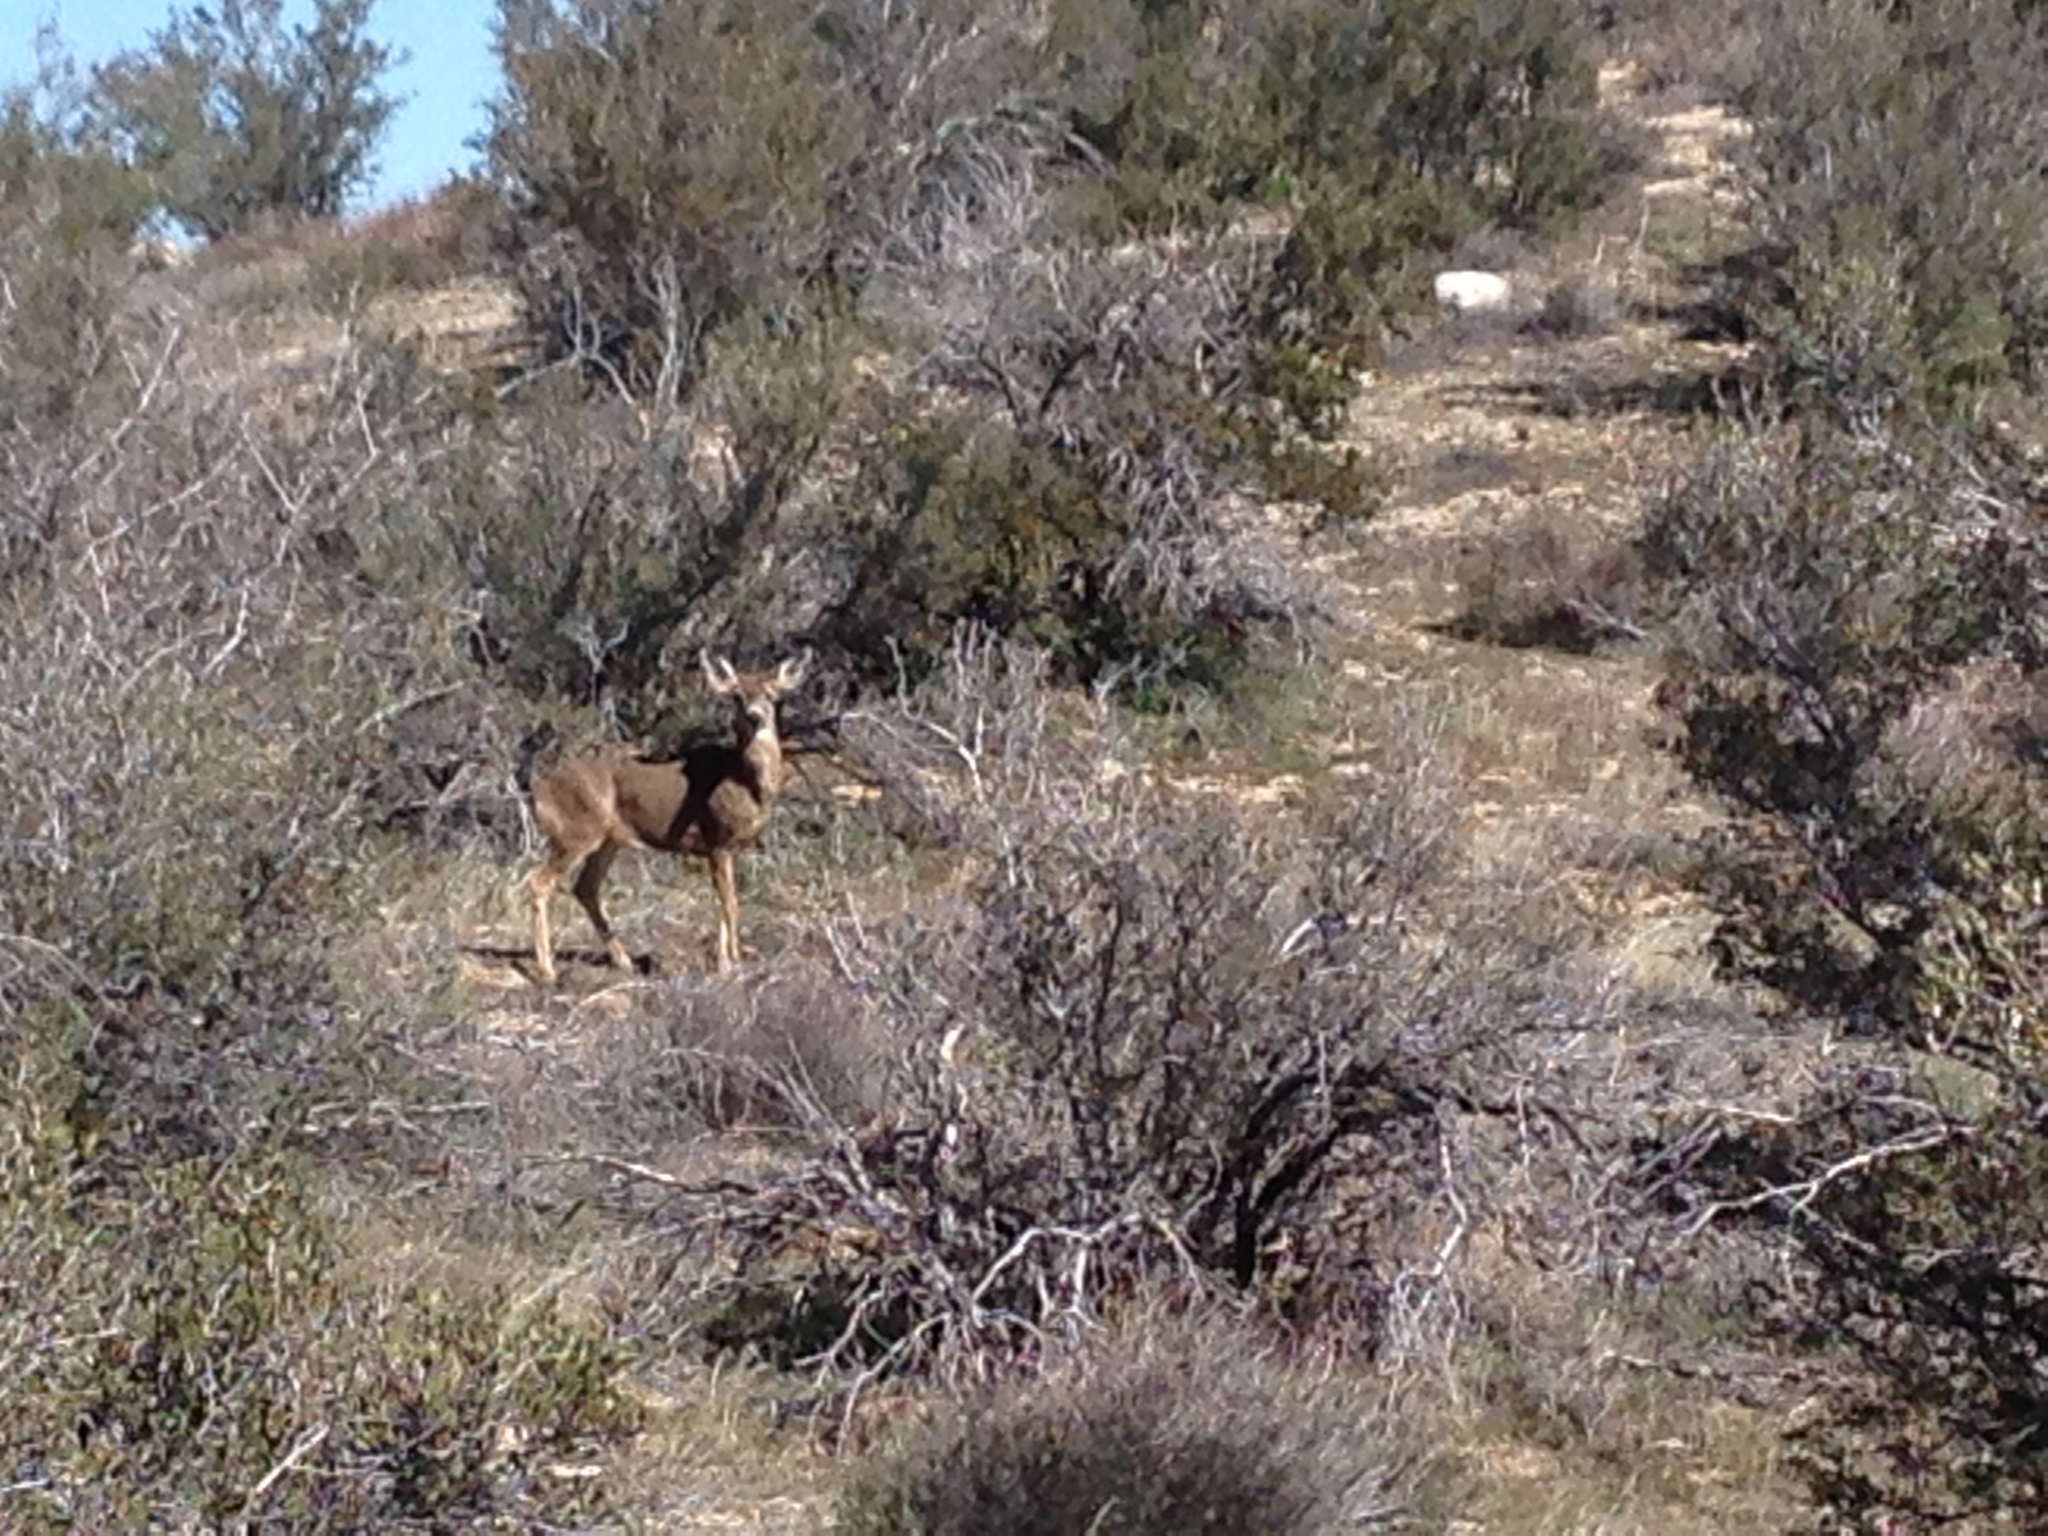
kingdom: Animalia
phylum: Chordata
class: Mammalia
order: Artiodactyla
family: Cervidae
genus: Odocoileus
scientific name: Odocoileus hemionus
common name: Mule deer
